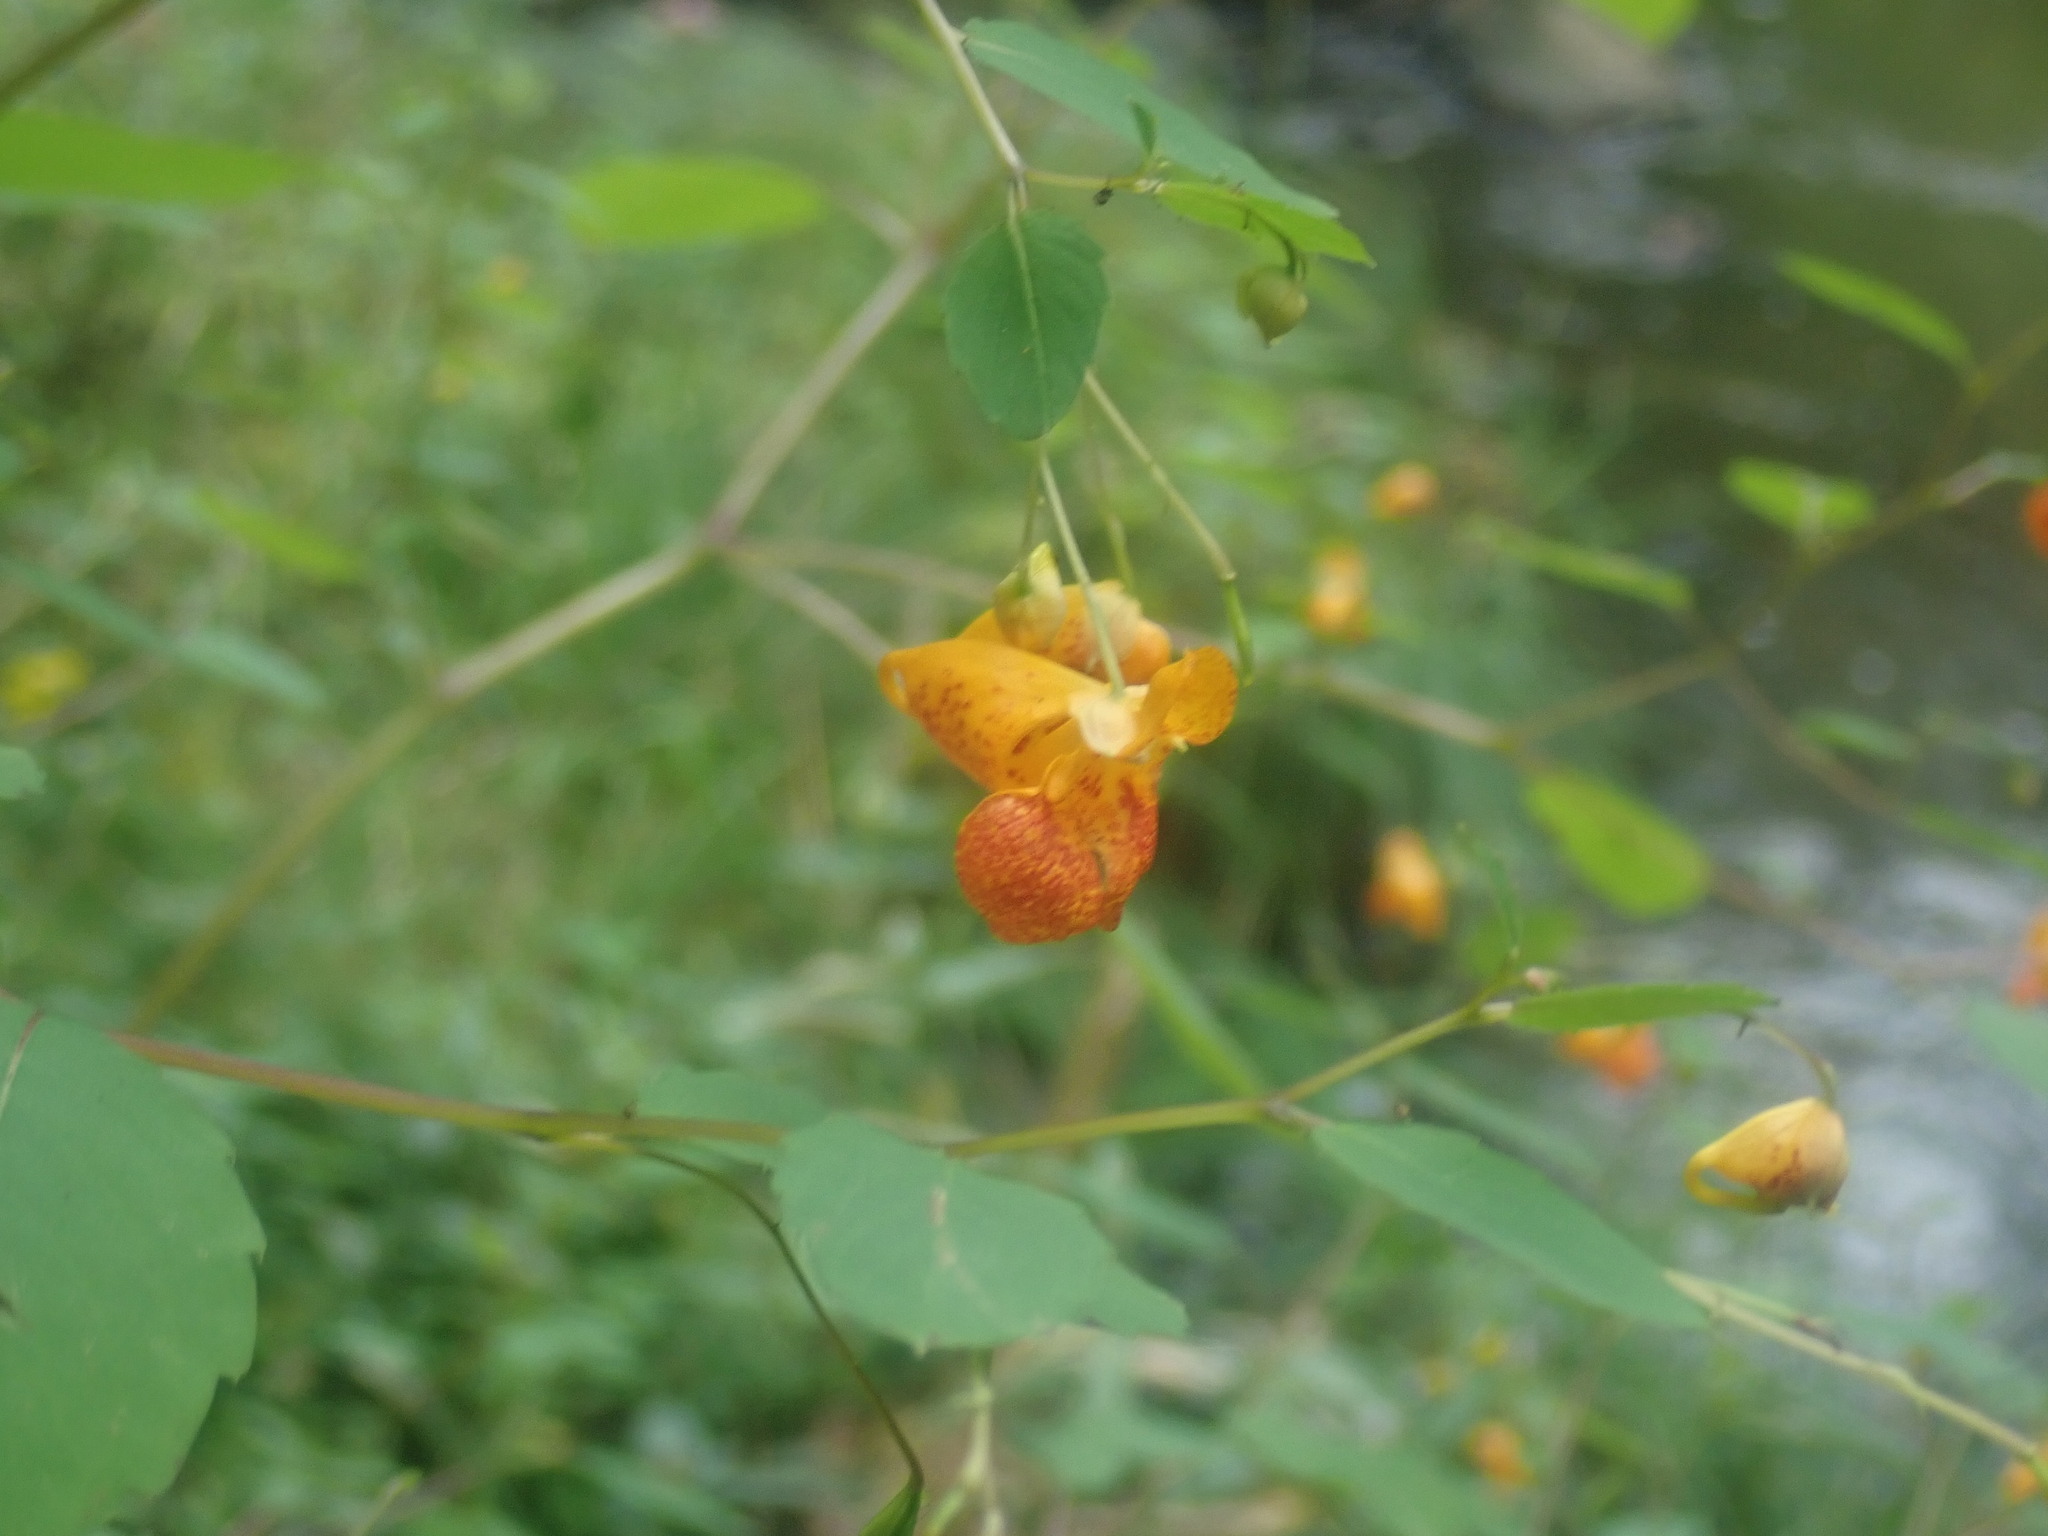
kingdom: Plantae
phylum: Tracheophyta
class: Magnoliopsida
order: Ericales
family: Balsaminaceae
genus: Impatiens
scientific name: Impatiens capensis
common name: Orange balsam
